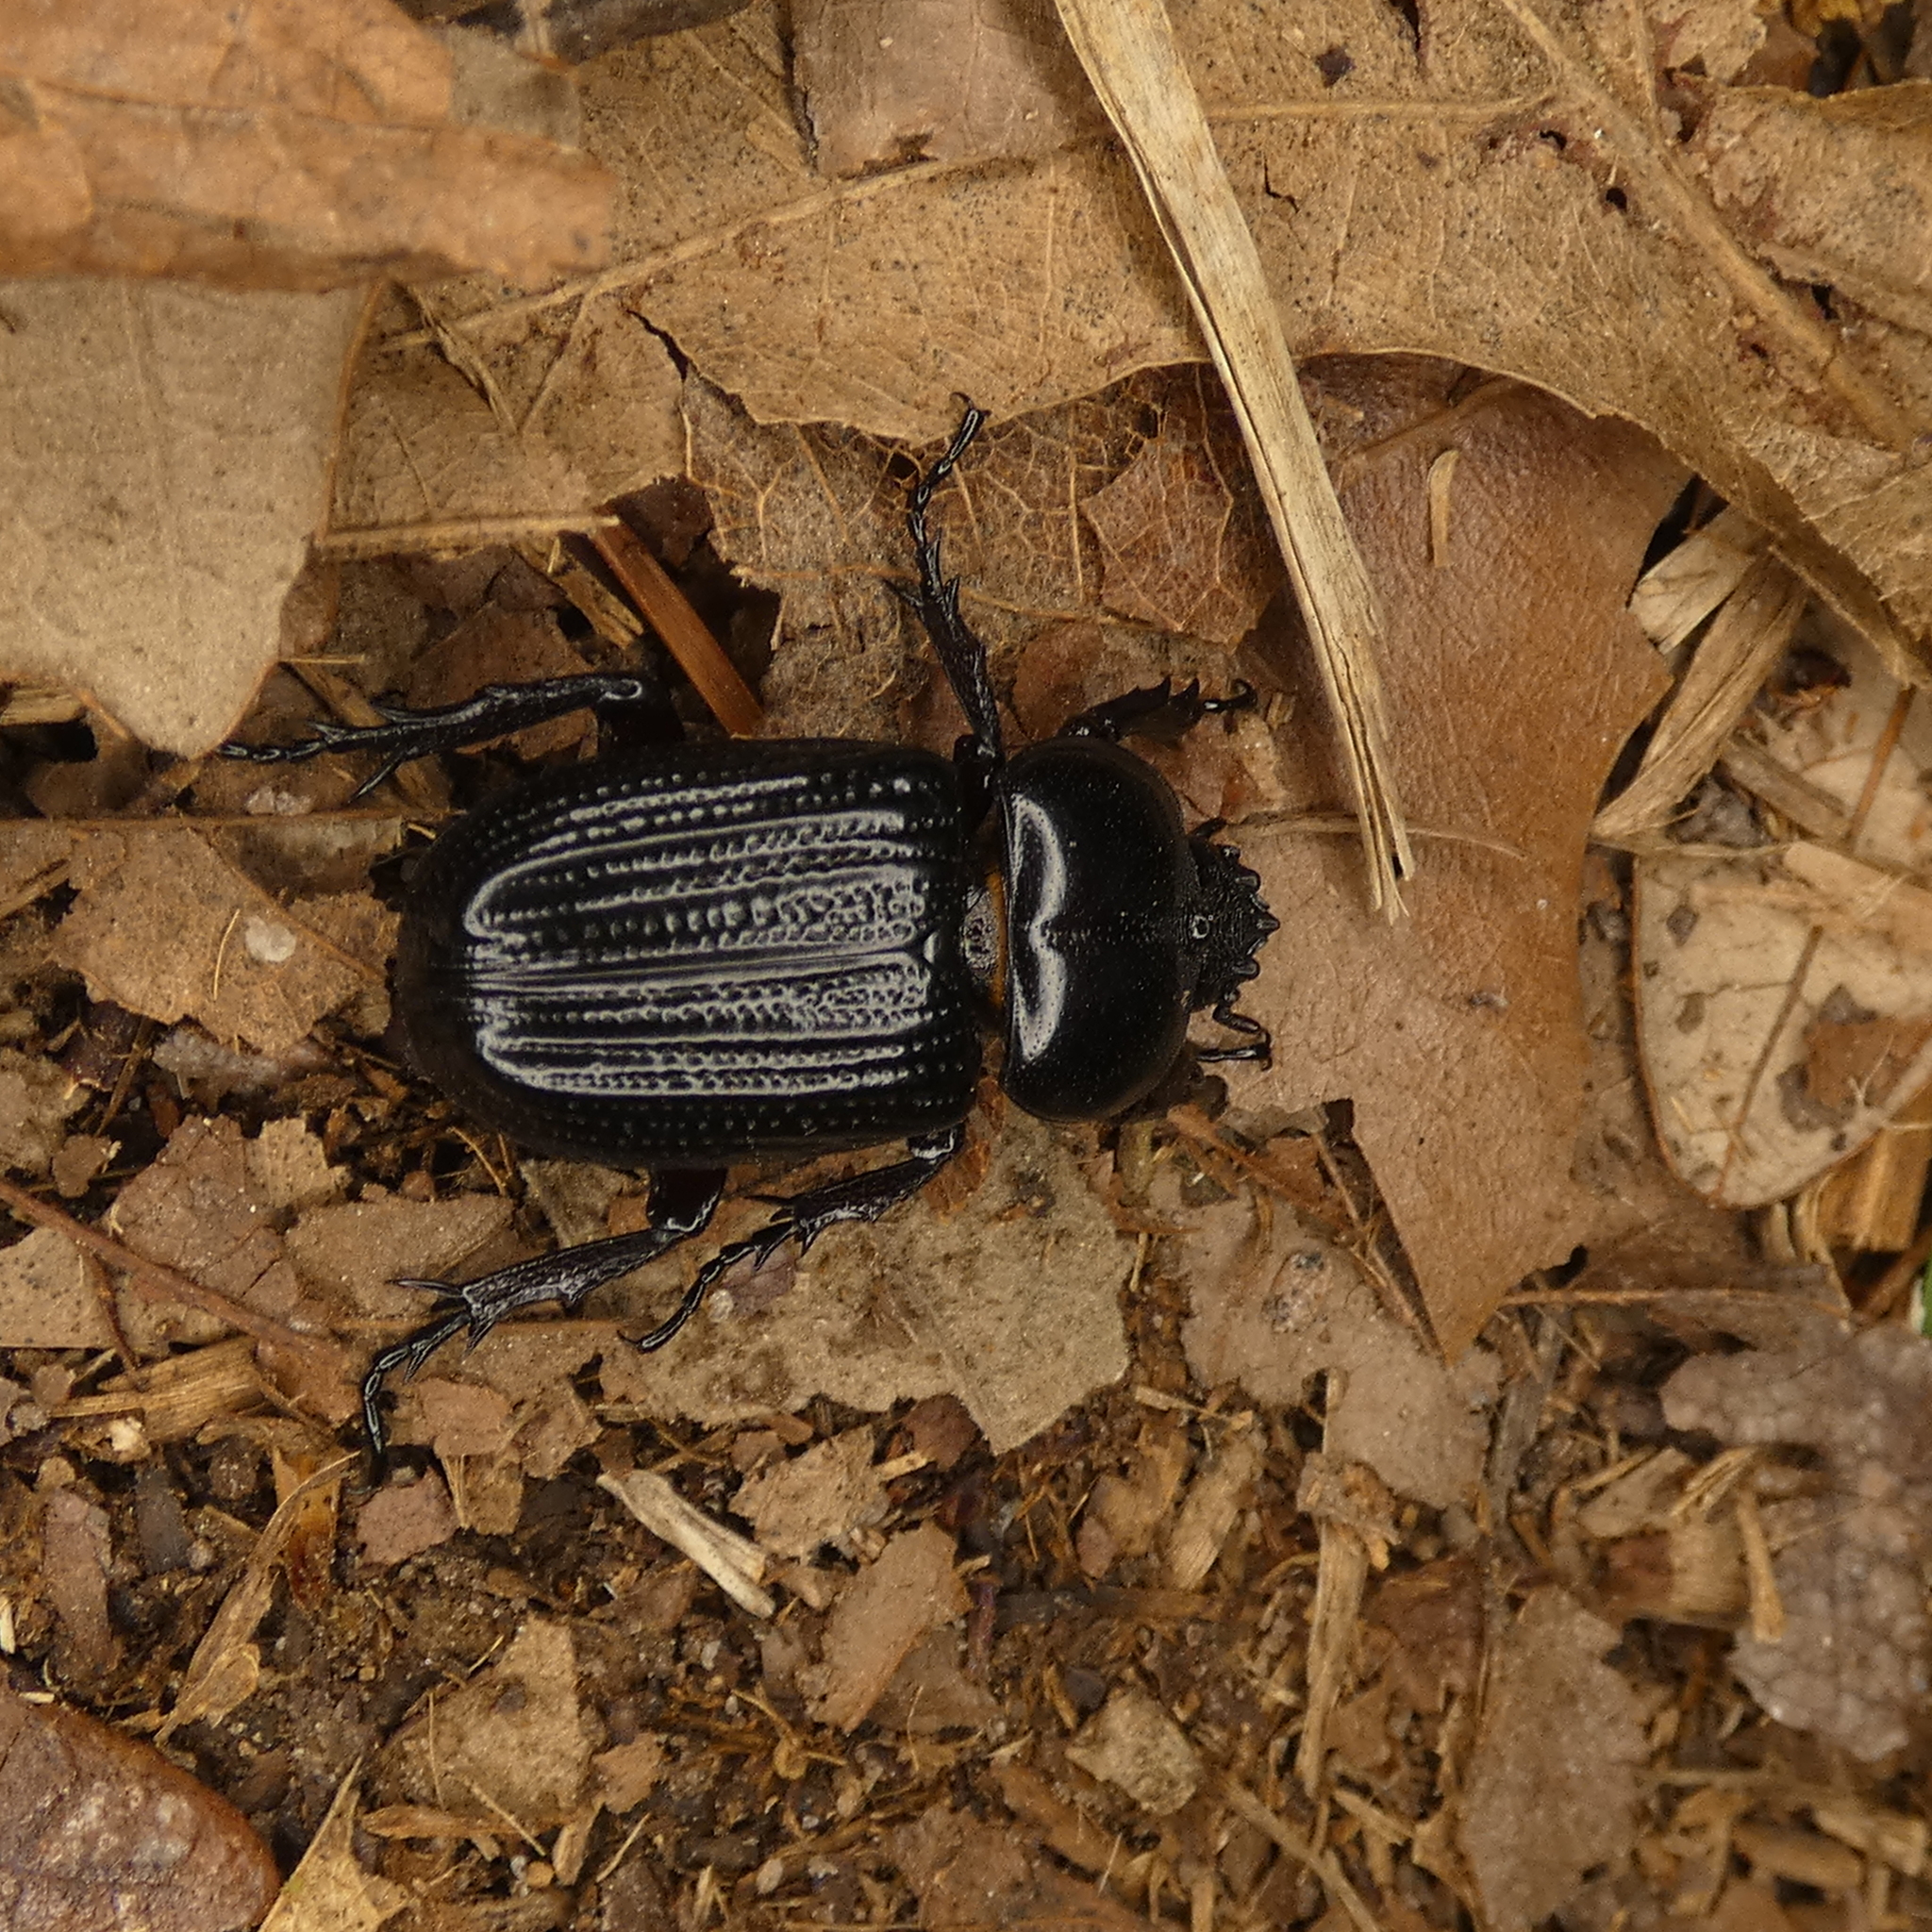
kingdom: Animalia
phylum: Arthropoda
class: Insecta
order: Coleoptera
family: Scarabaeidae
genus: Phileurus
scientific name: Phileurus valgus
